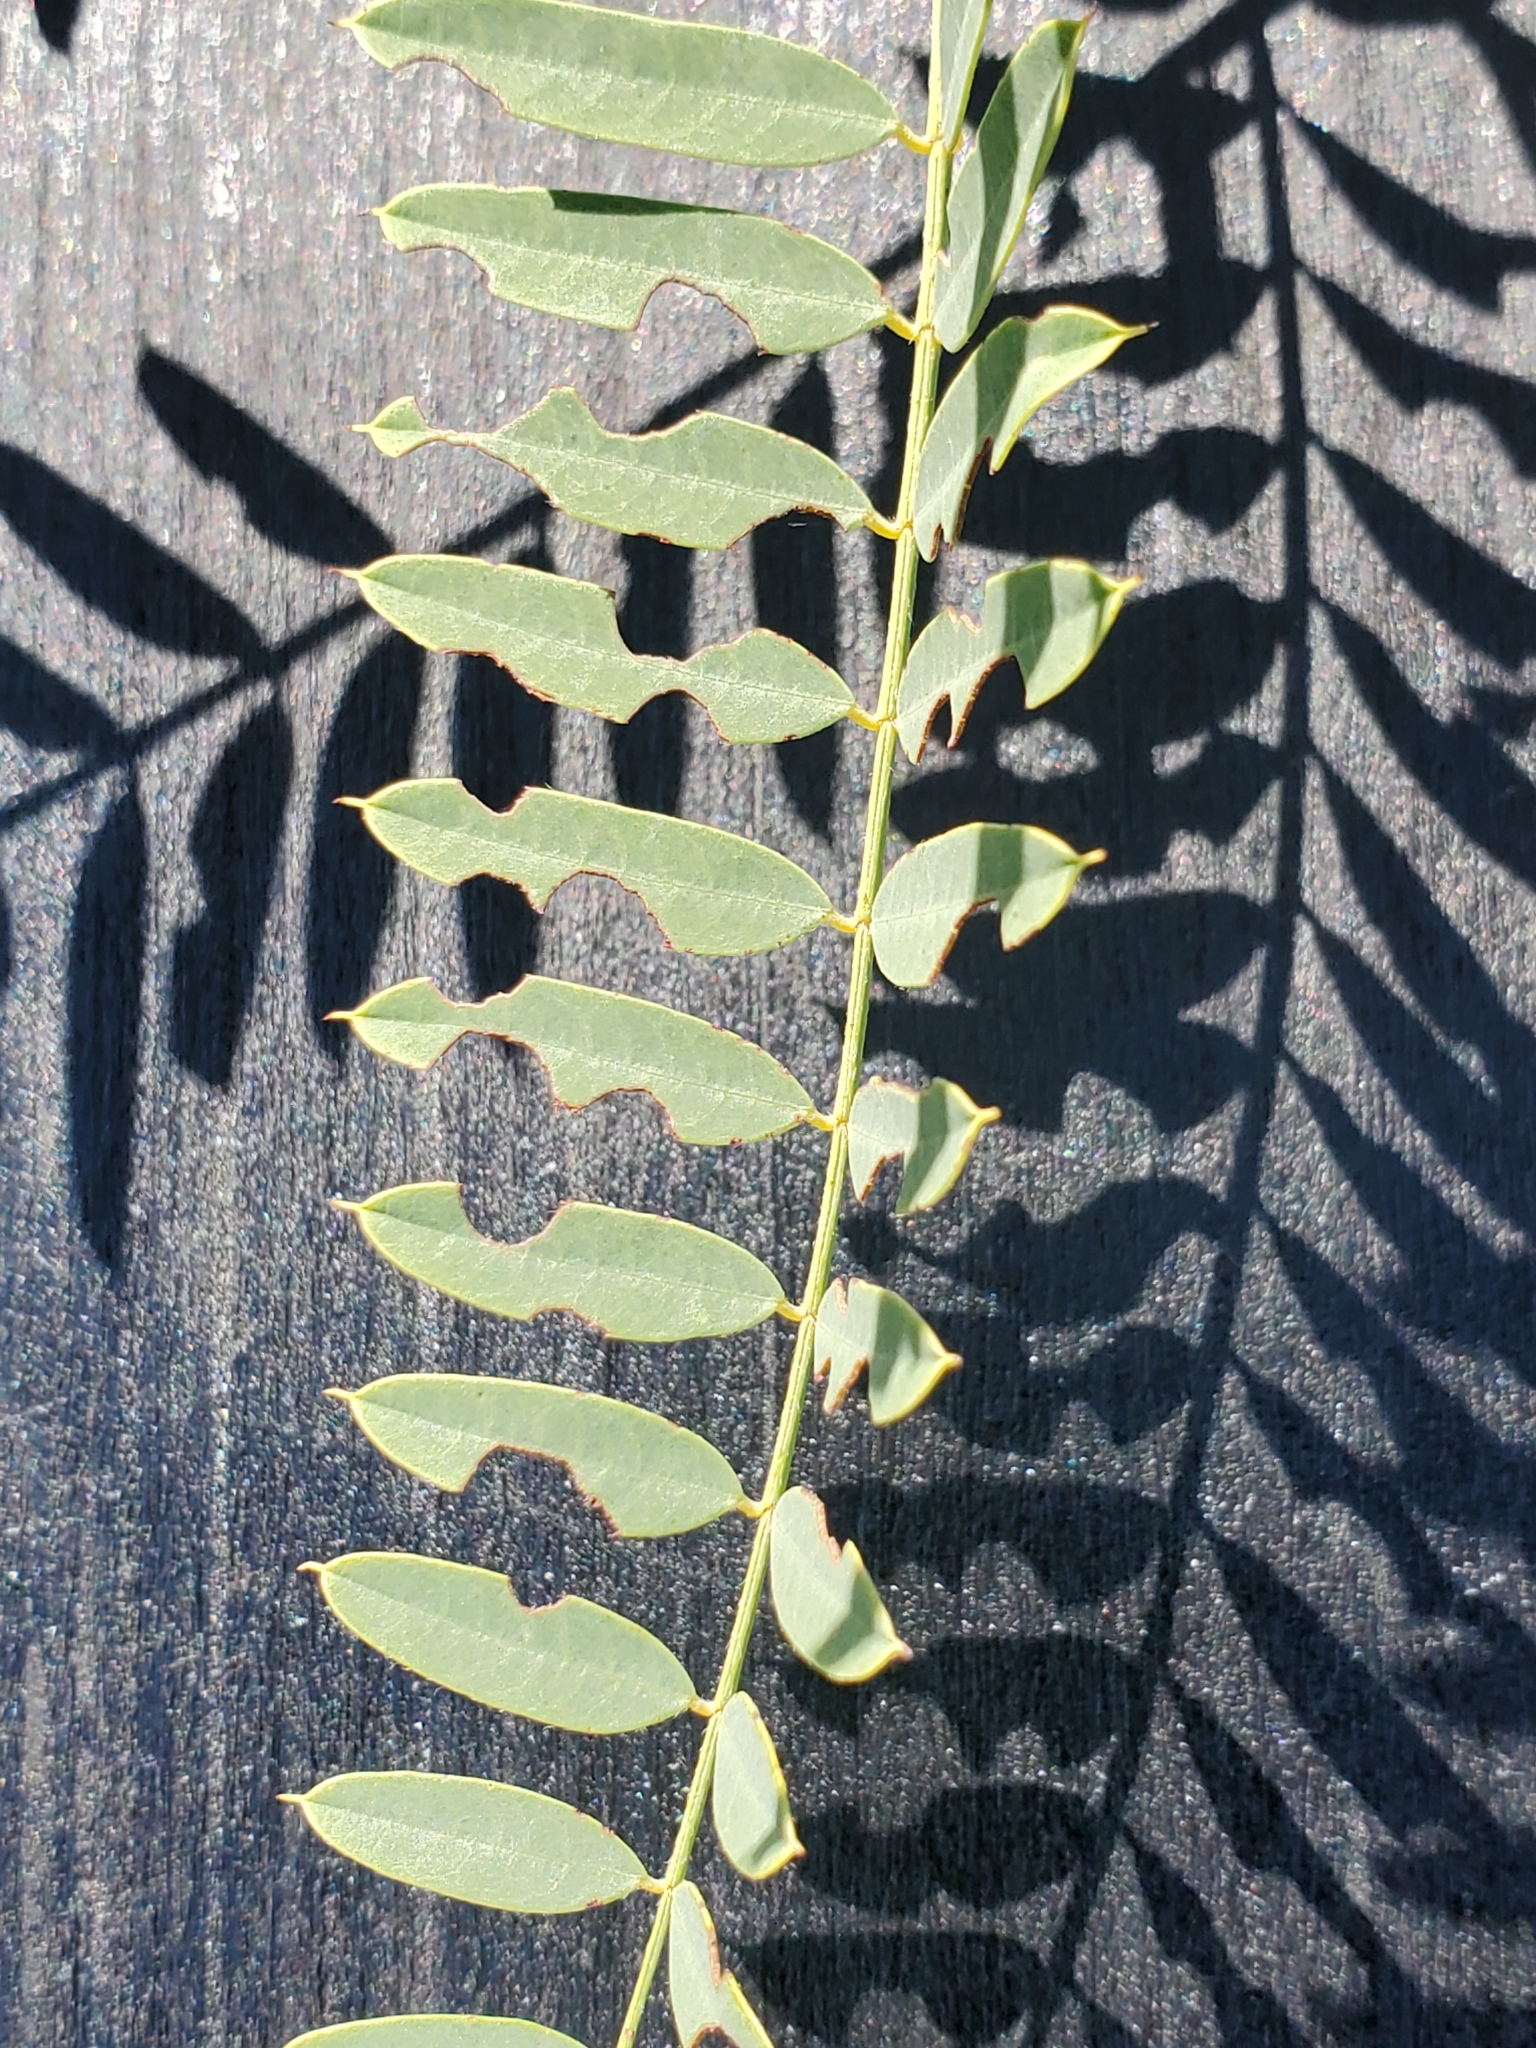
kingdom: Plantae
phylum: Tracheophyta
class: Magnoliopsida
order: Fabales
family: Fabaceae
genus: Sesbania
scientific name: Sesbania drummondii
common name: Poison-bean
